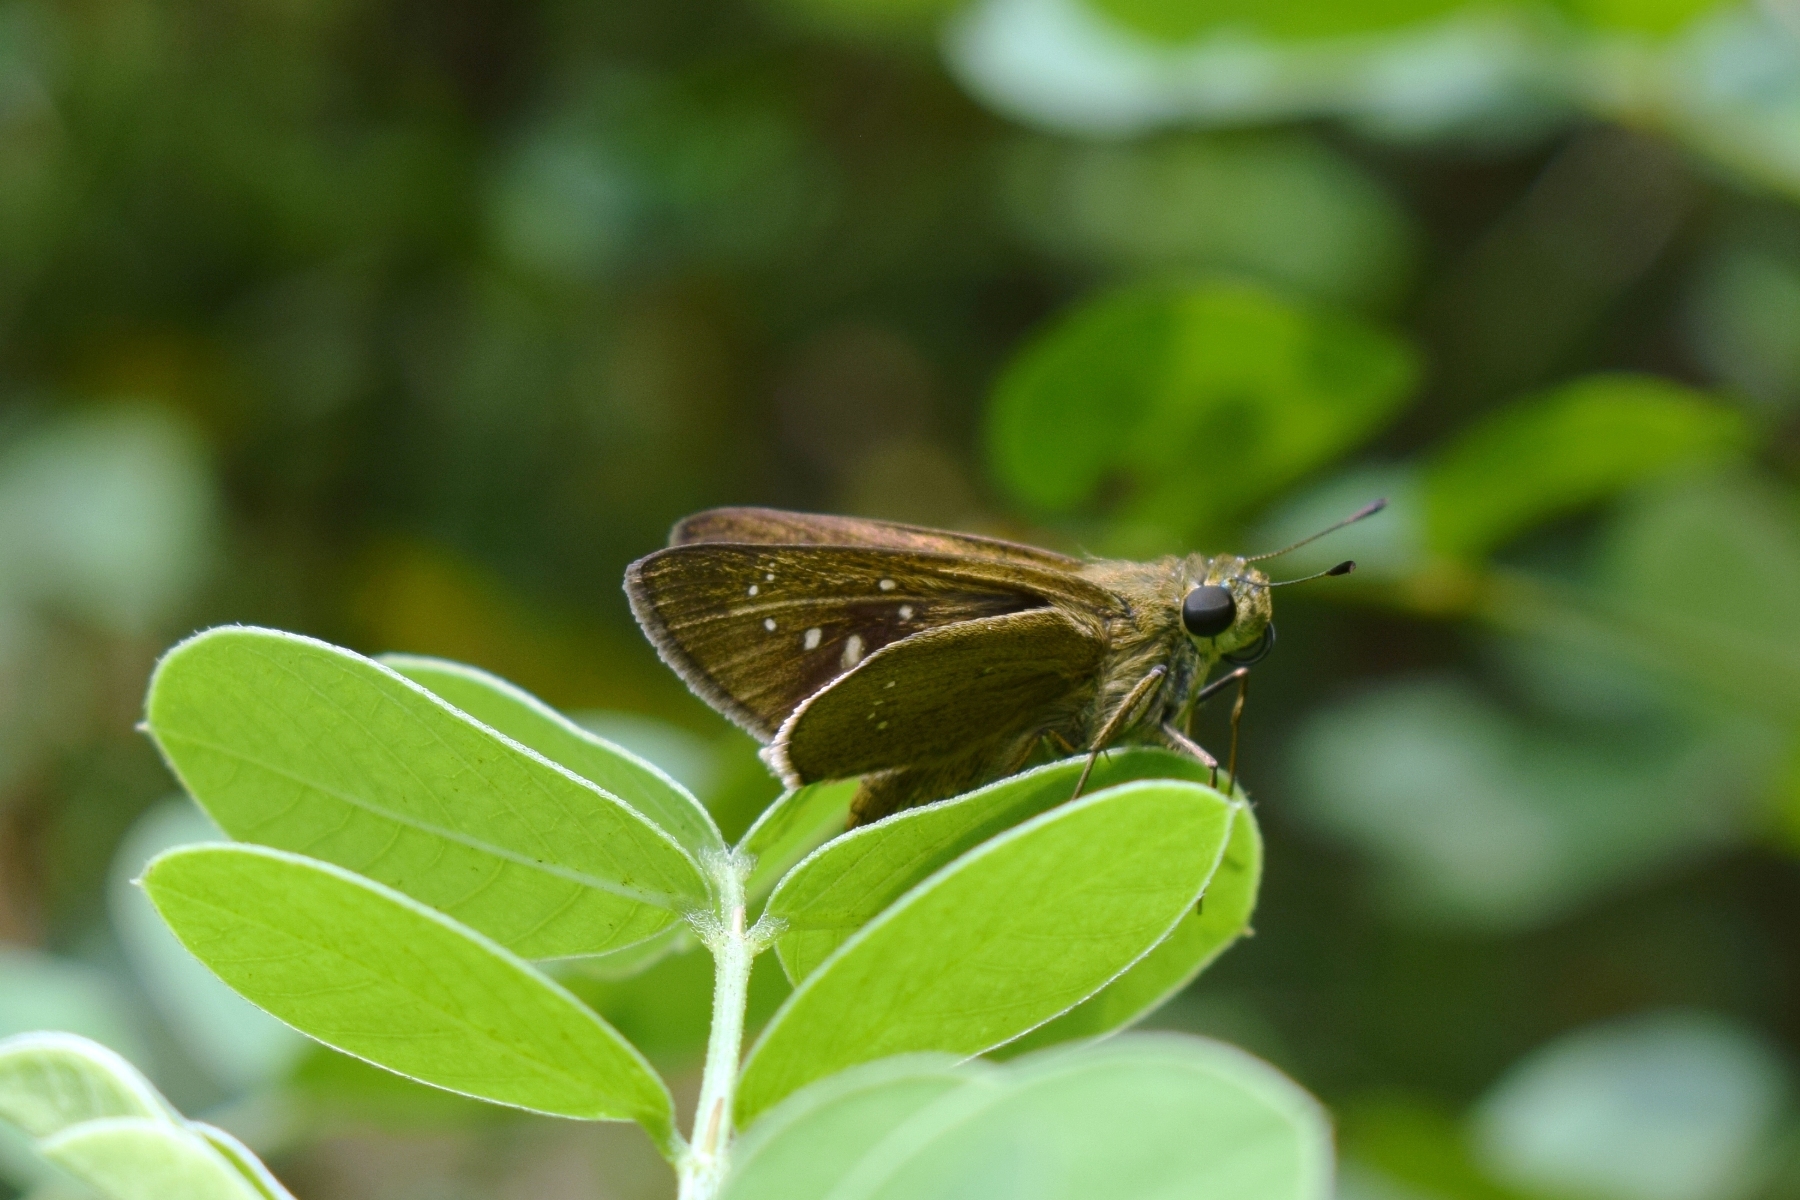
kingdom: Animalia
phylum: Arthropoda
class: Insecta
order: Lepidoptera
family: Hesperiidae
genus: Pelopidas
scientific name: Pelopidas agna
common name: Little branded swift
